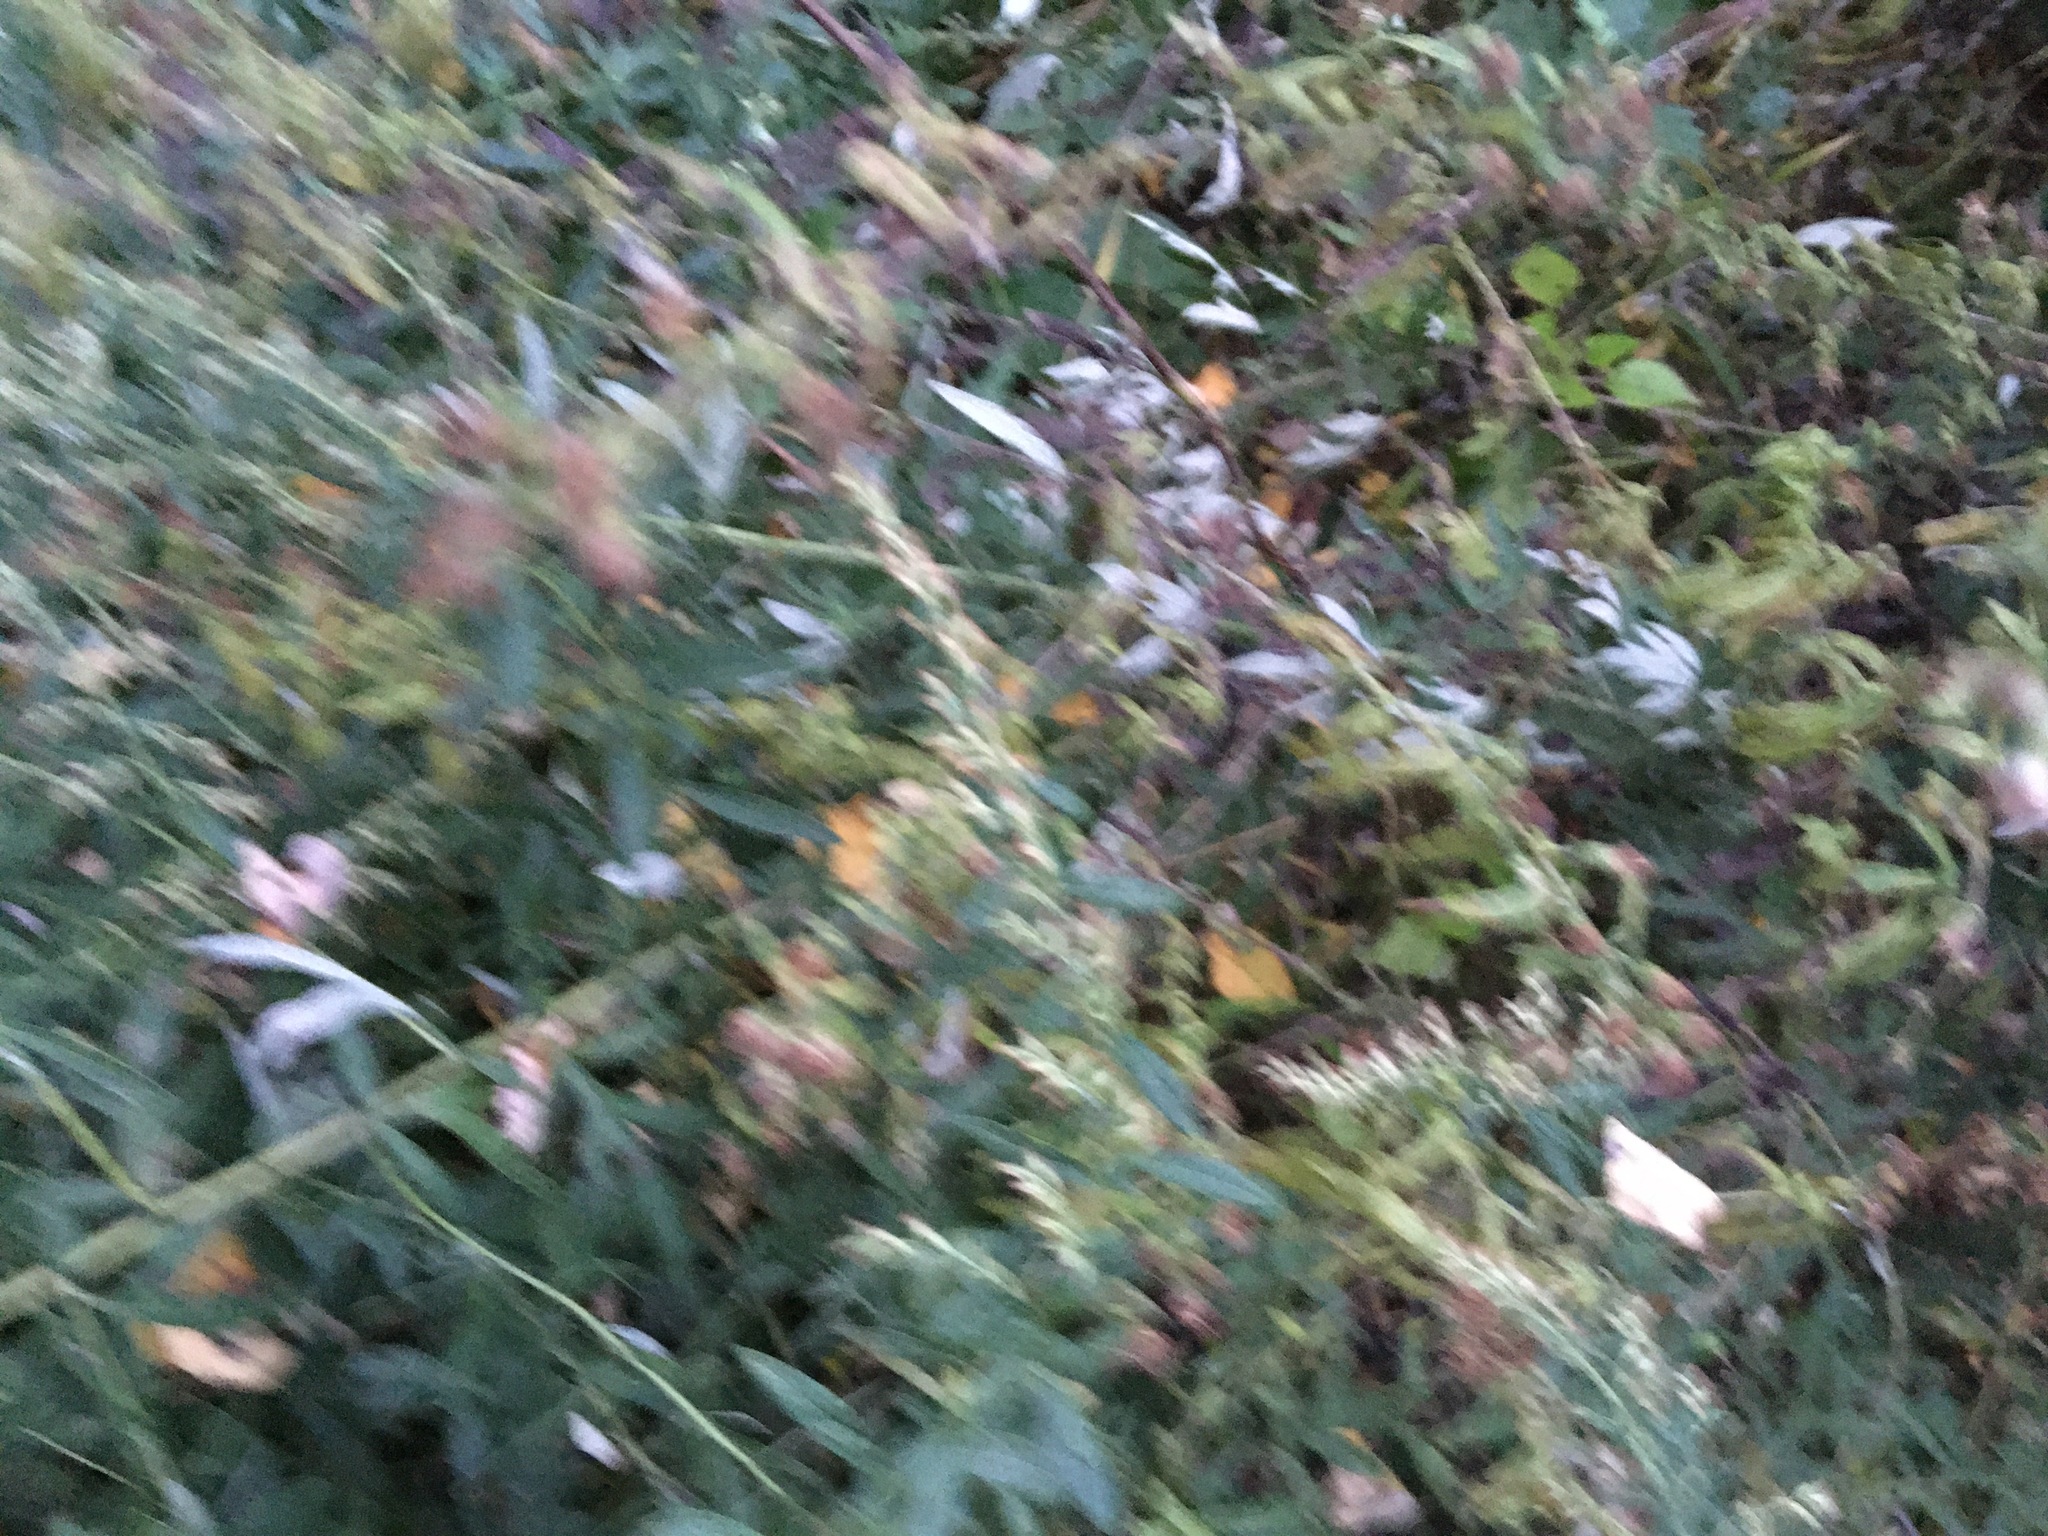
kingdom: Plantae
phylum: Tracheophyta
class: Magnoliopsida
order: Asterales
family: Asteraceae
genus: Artemisia
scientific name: Artemisia vulgaris
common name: Mugwort
